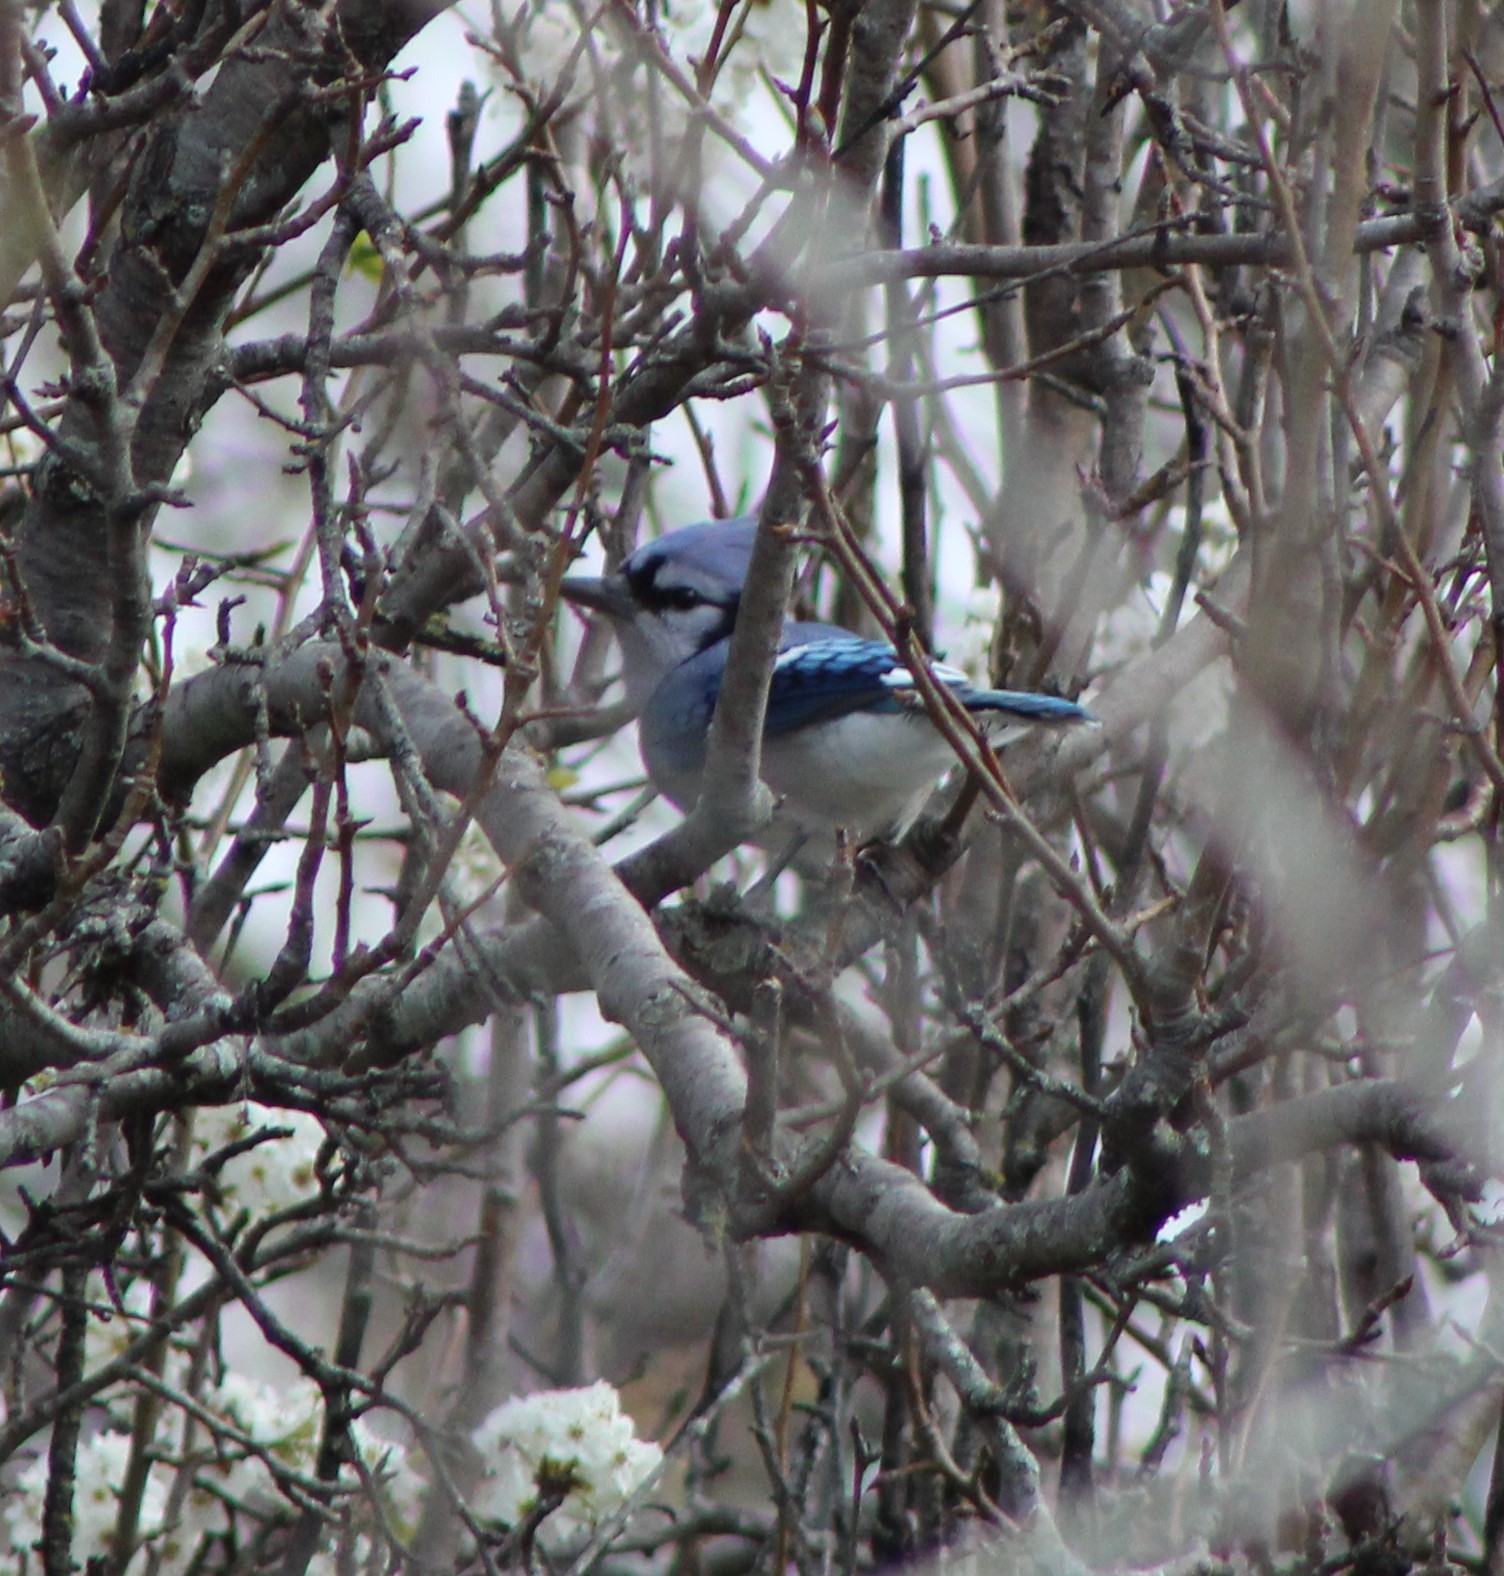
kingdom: Animalia
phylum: Chordata
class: Aves
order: Passeriformes
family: Corvidae
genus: Cyanocitta
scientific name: Cyanocitta cristata
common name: Blue jay
